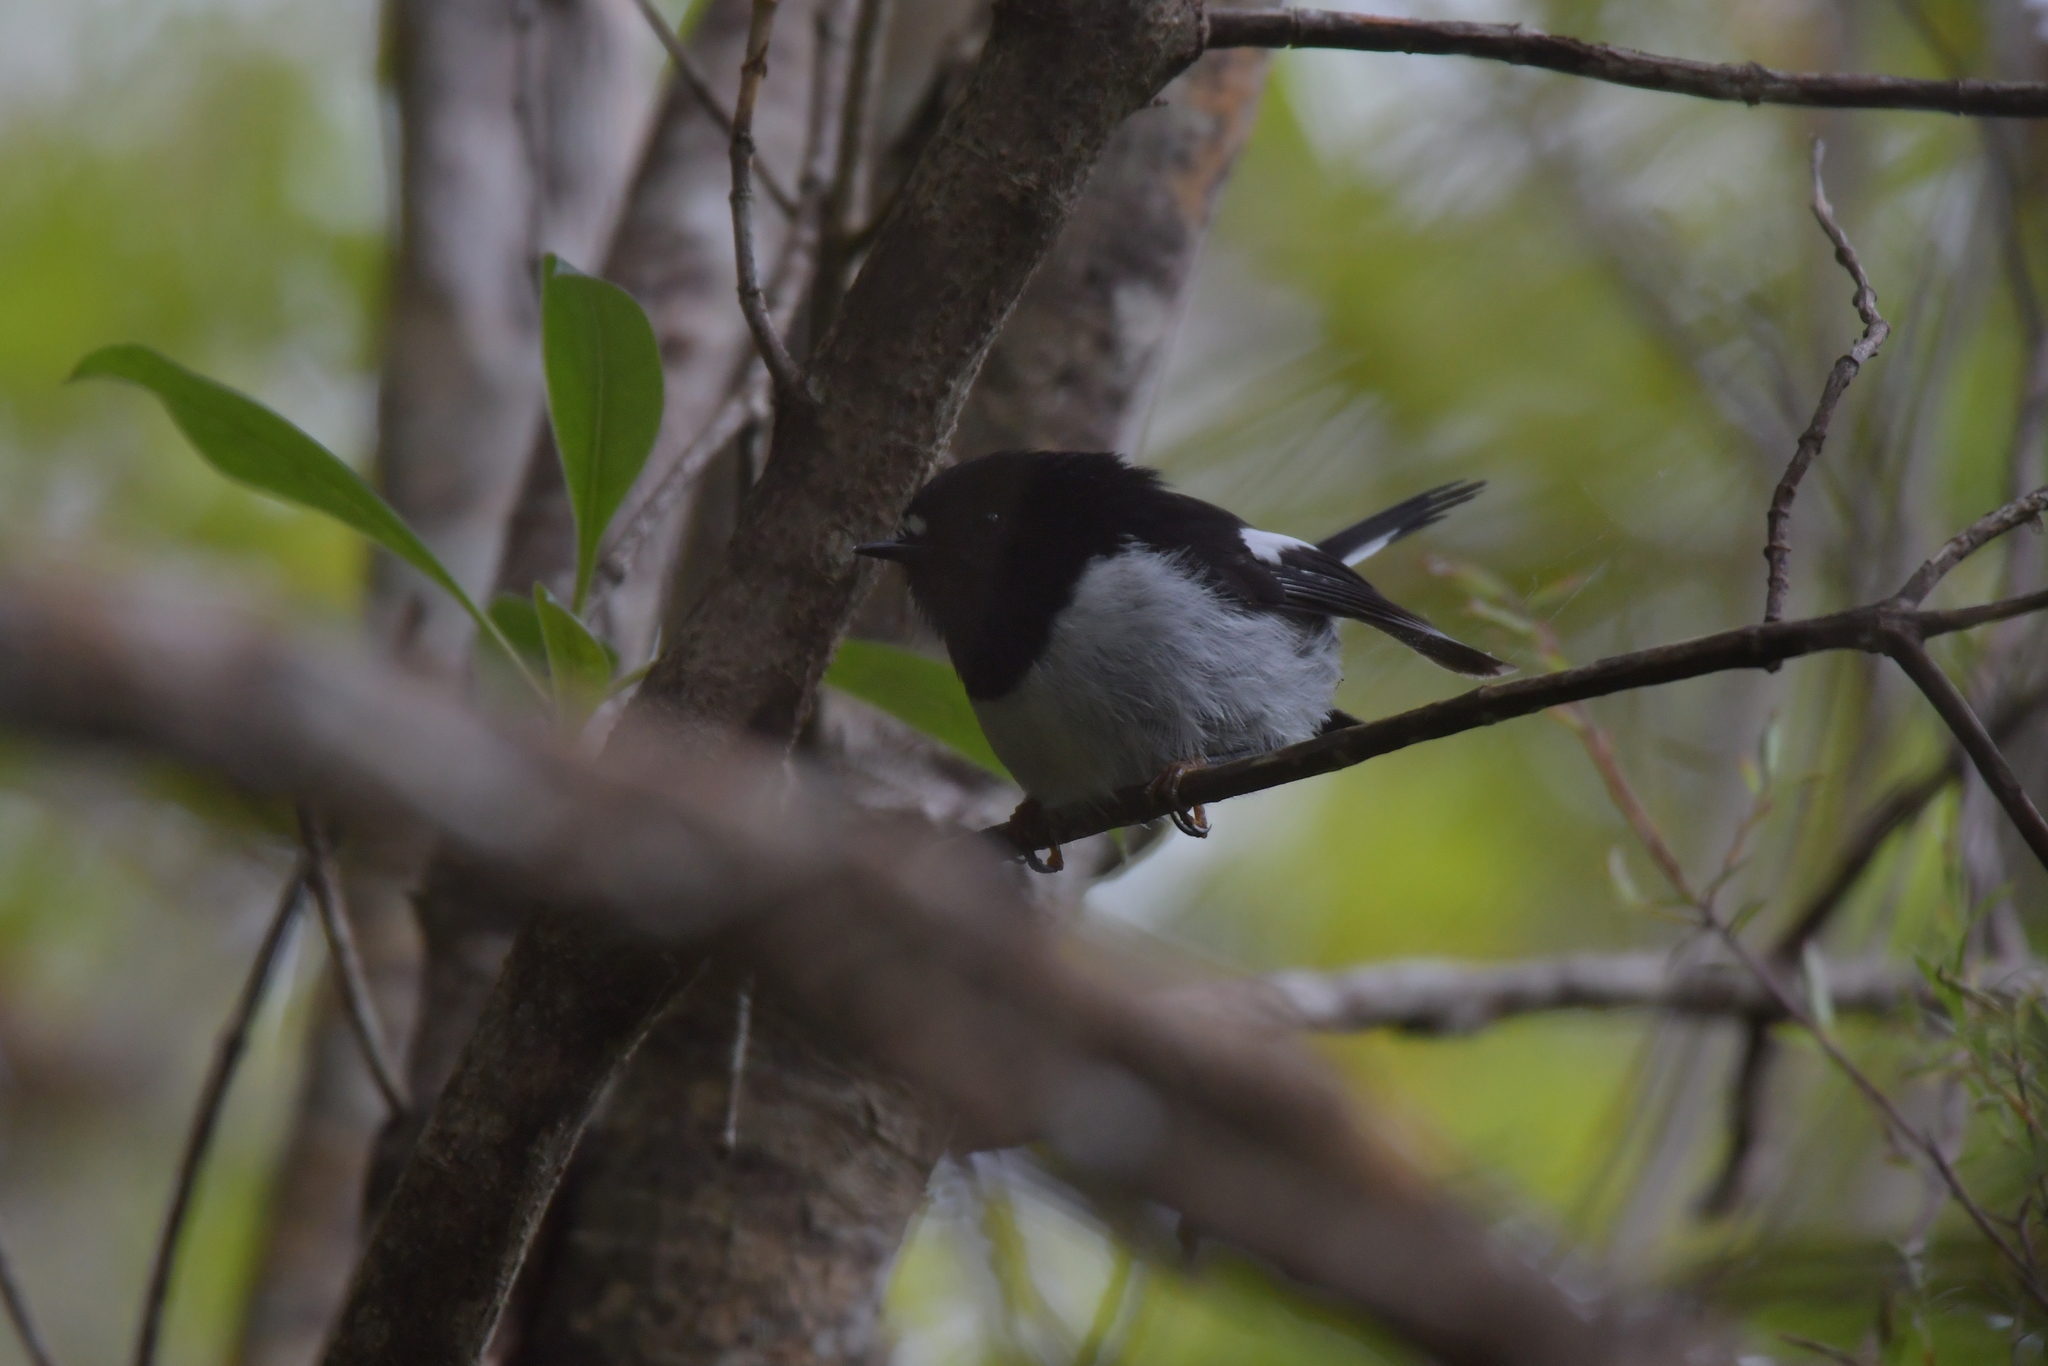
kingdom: Animalia
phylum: Chordata
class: Aves
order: Passeriformes
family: Petroicidae
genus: Petroica
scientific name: Petroica macrocephala
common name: Tomtit
